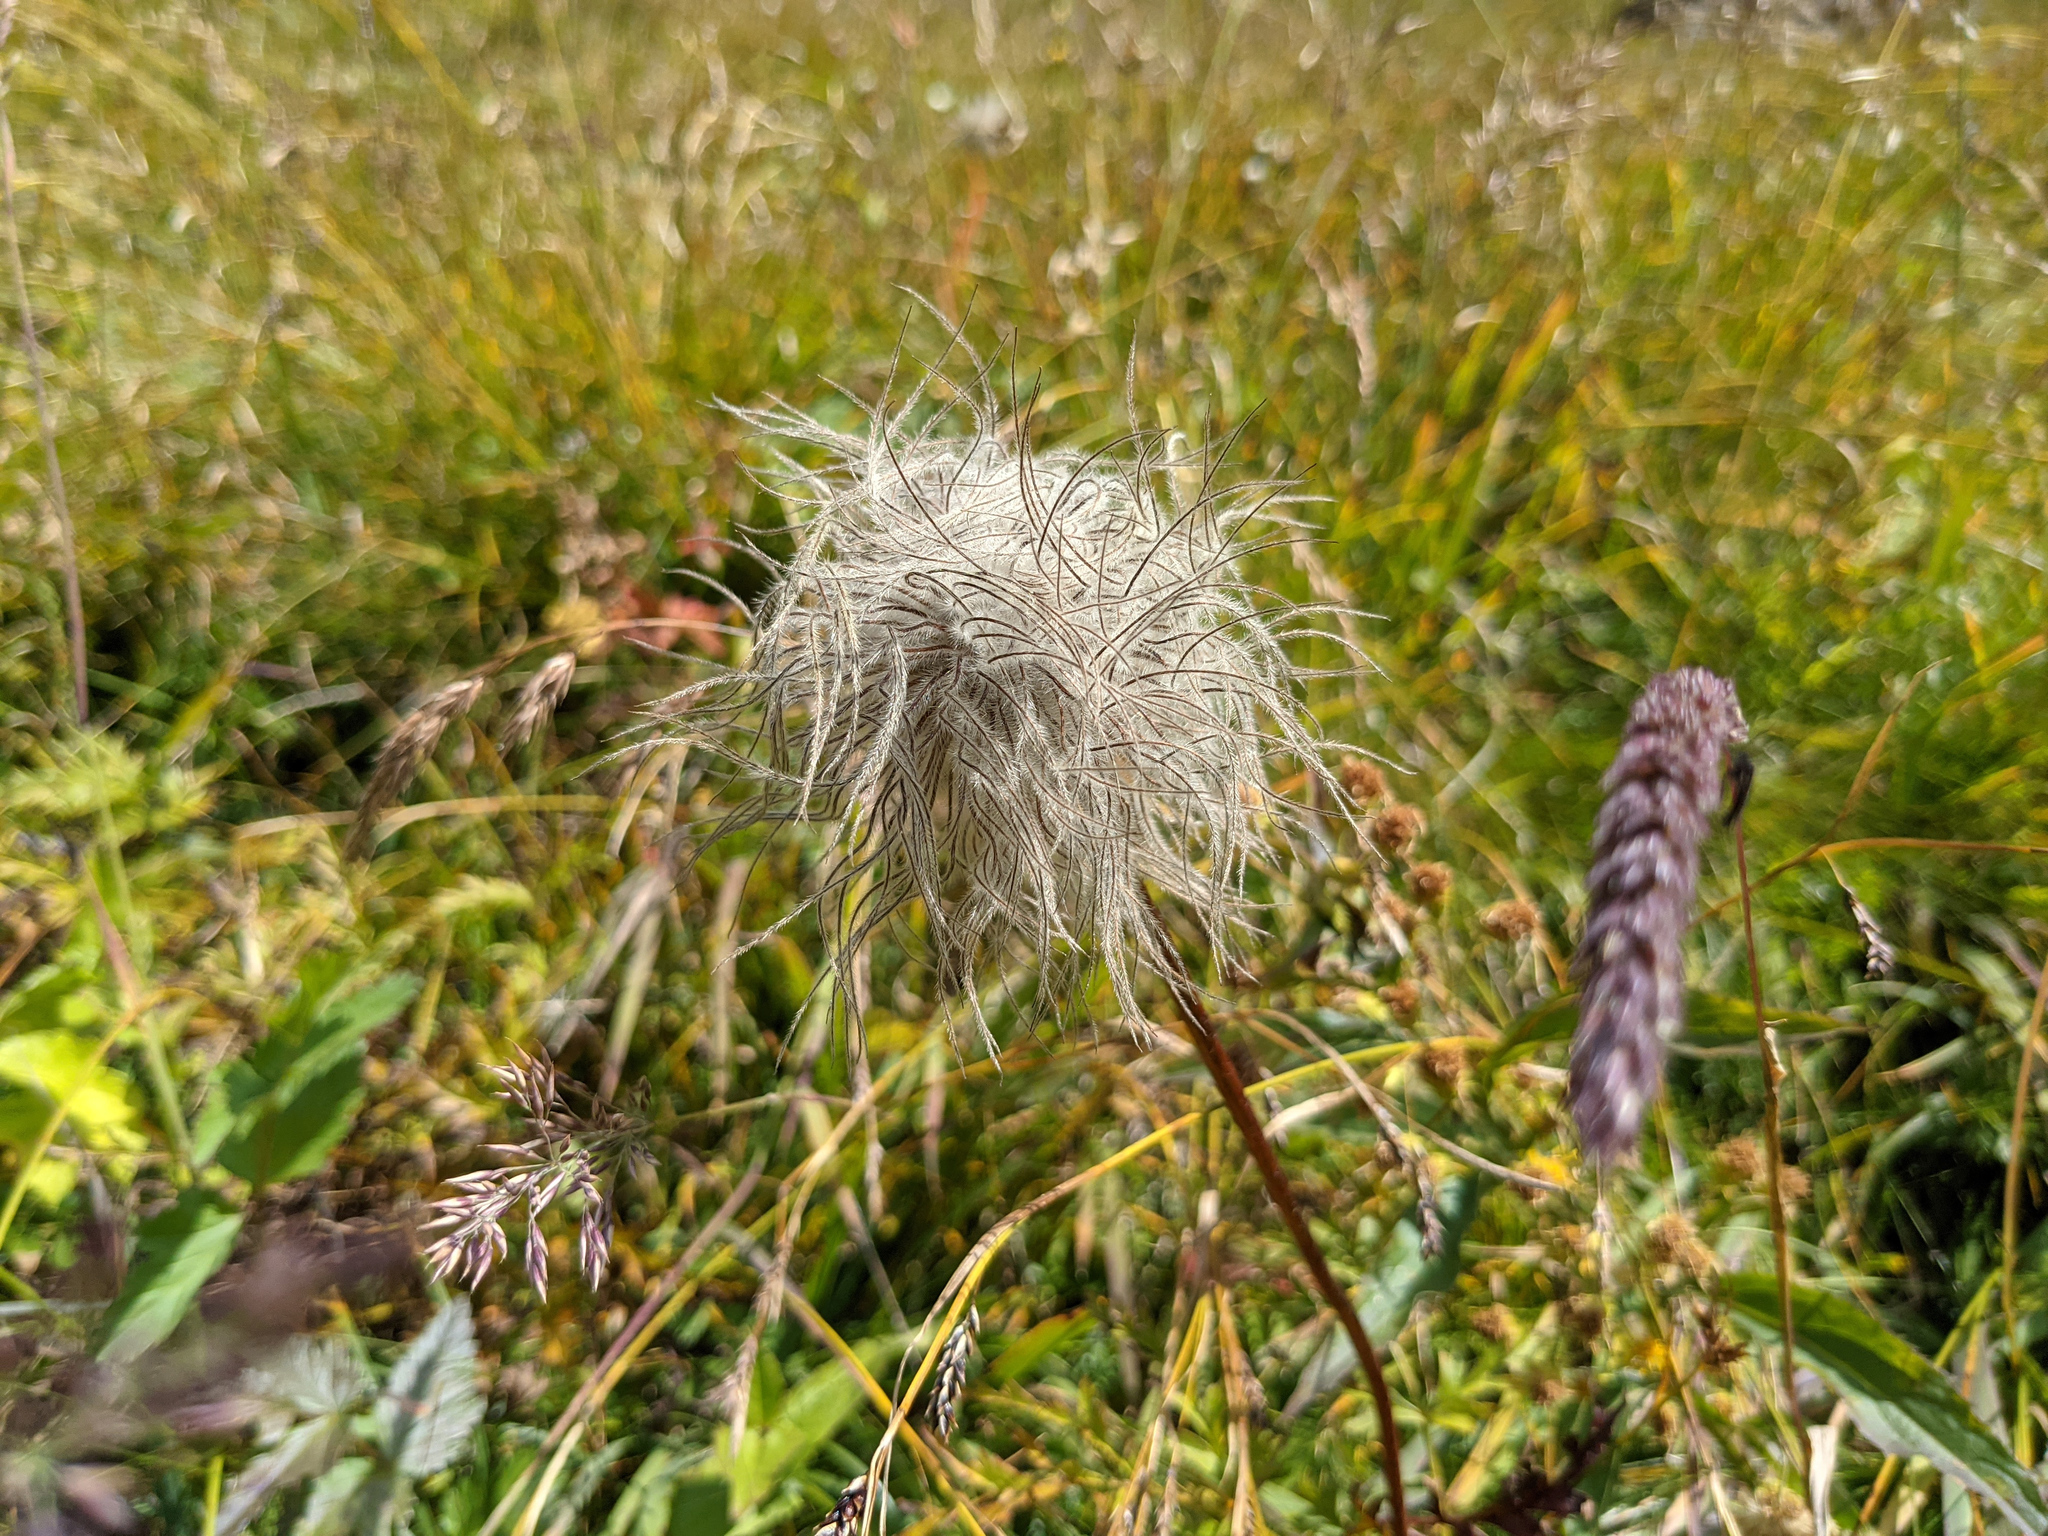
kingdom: Plantae
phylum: Tracheophyta
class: Magnoliopsida
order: Ranunculales
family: Ranunculaceae
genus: Pulsatilla
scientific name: Pulsatilla alpina
